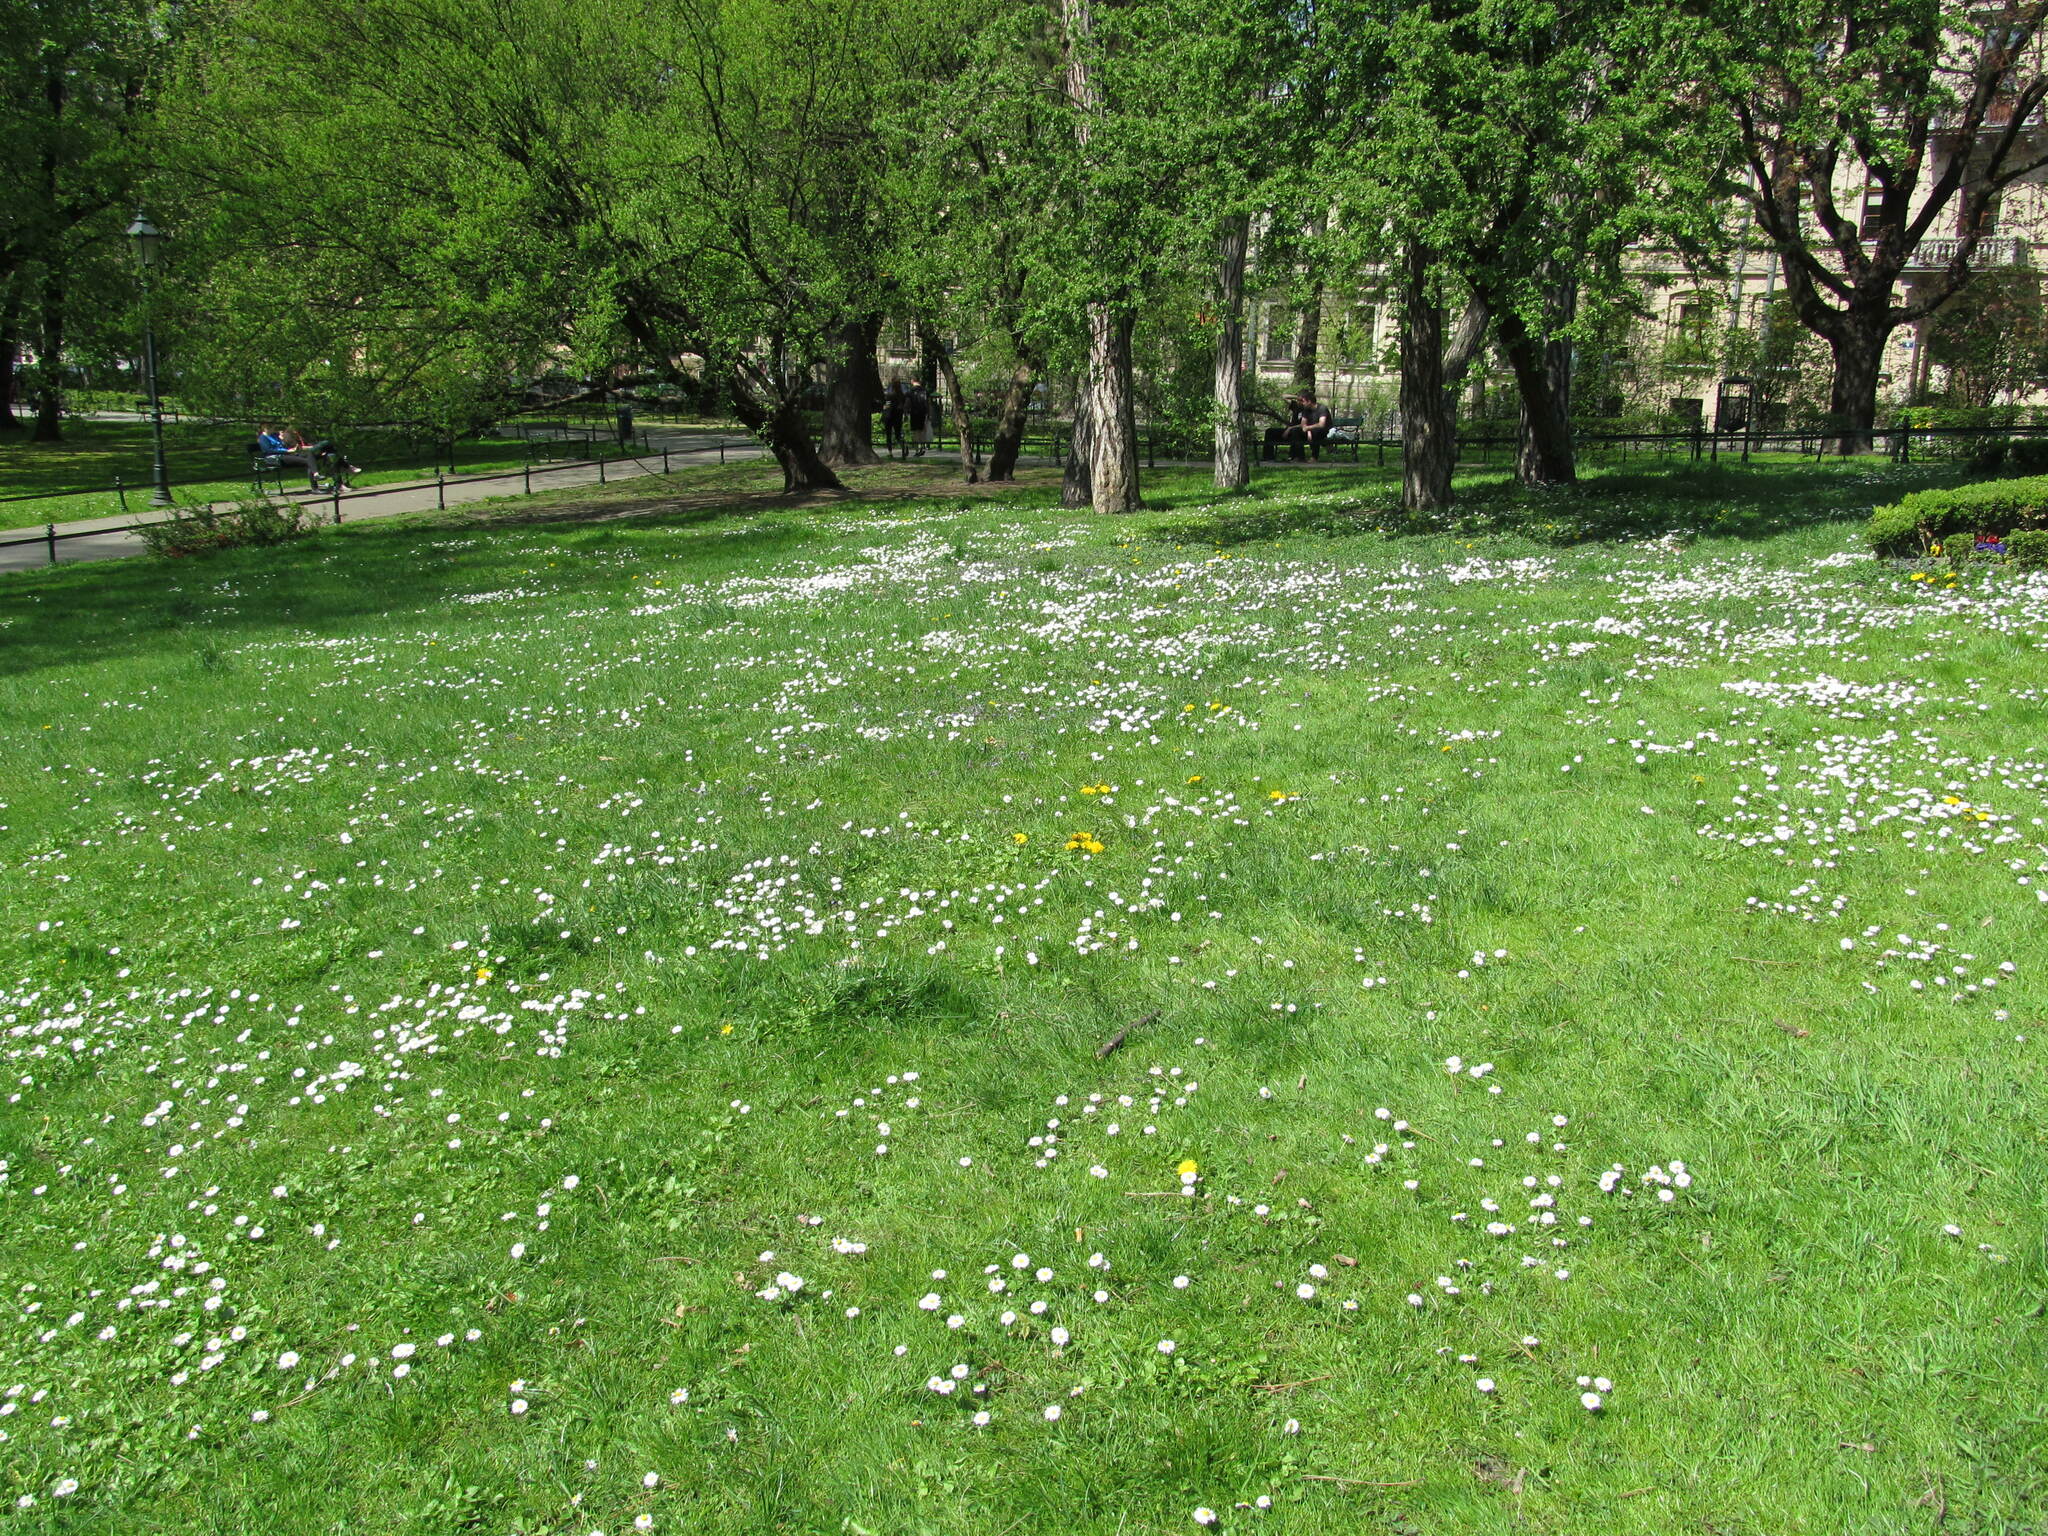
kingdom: Plantae
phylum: Tracheophyta
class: Magnoliopsida
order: Asterales
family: Asteraceae
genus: Bellis
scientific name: Bellis perennis
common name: Lawndaisy
